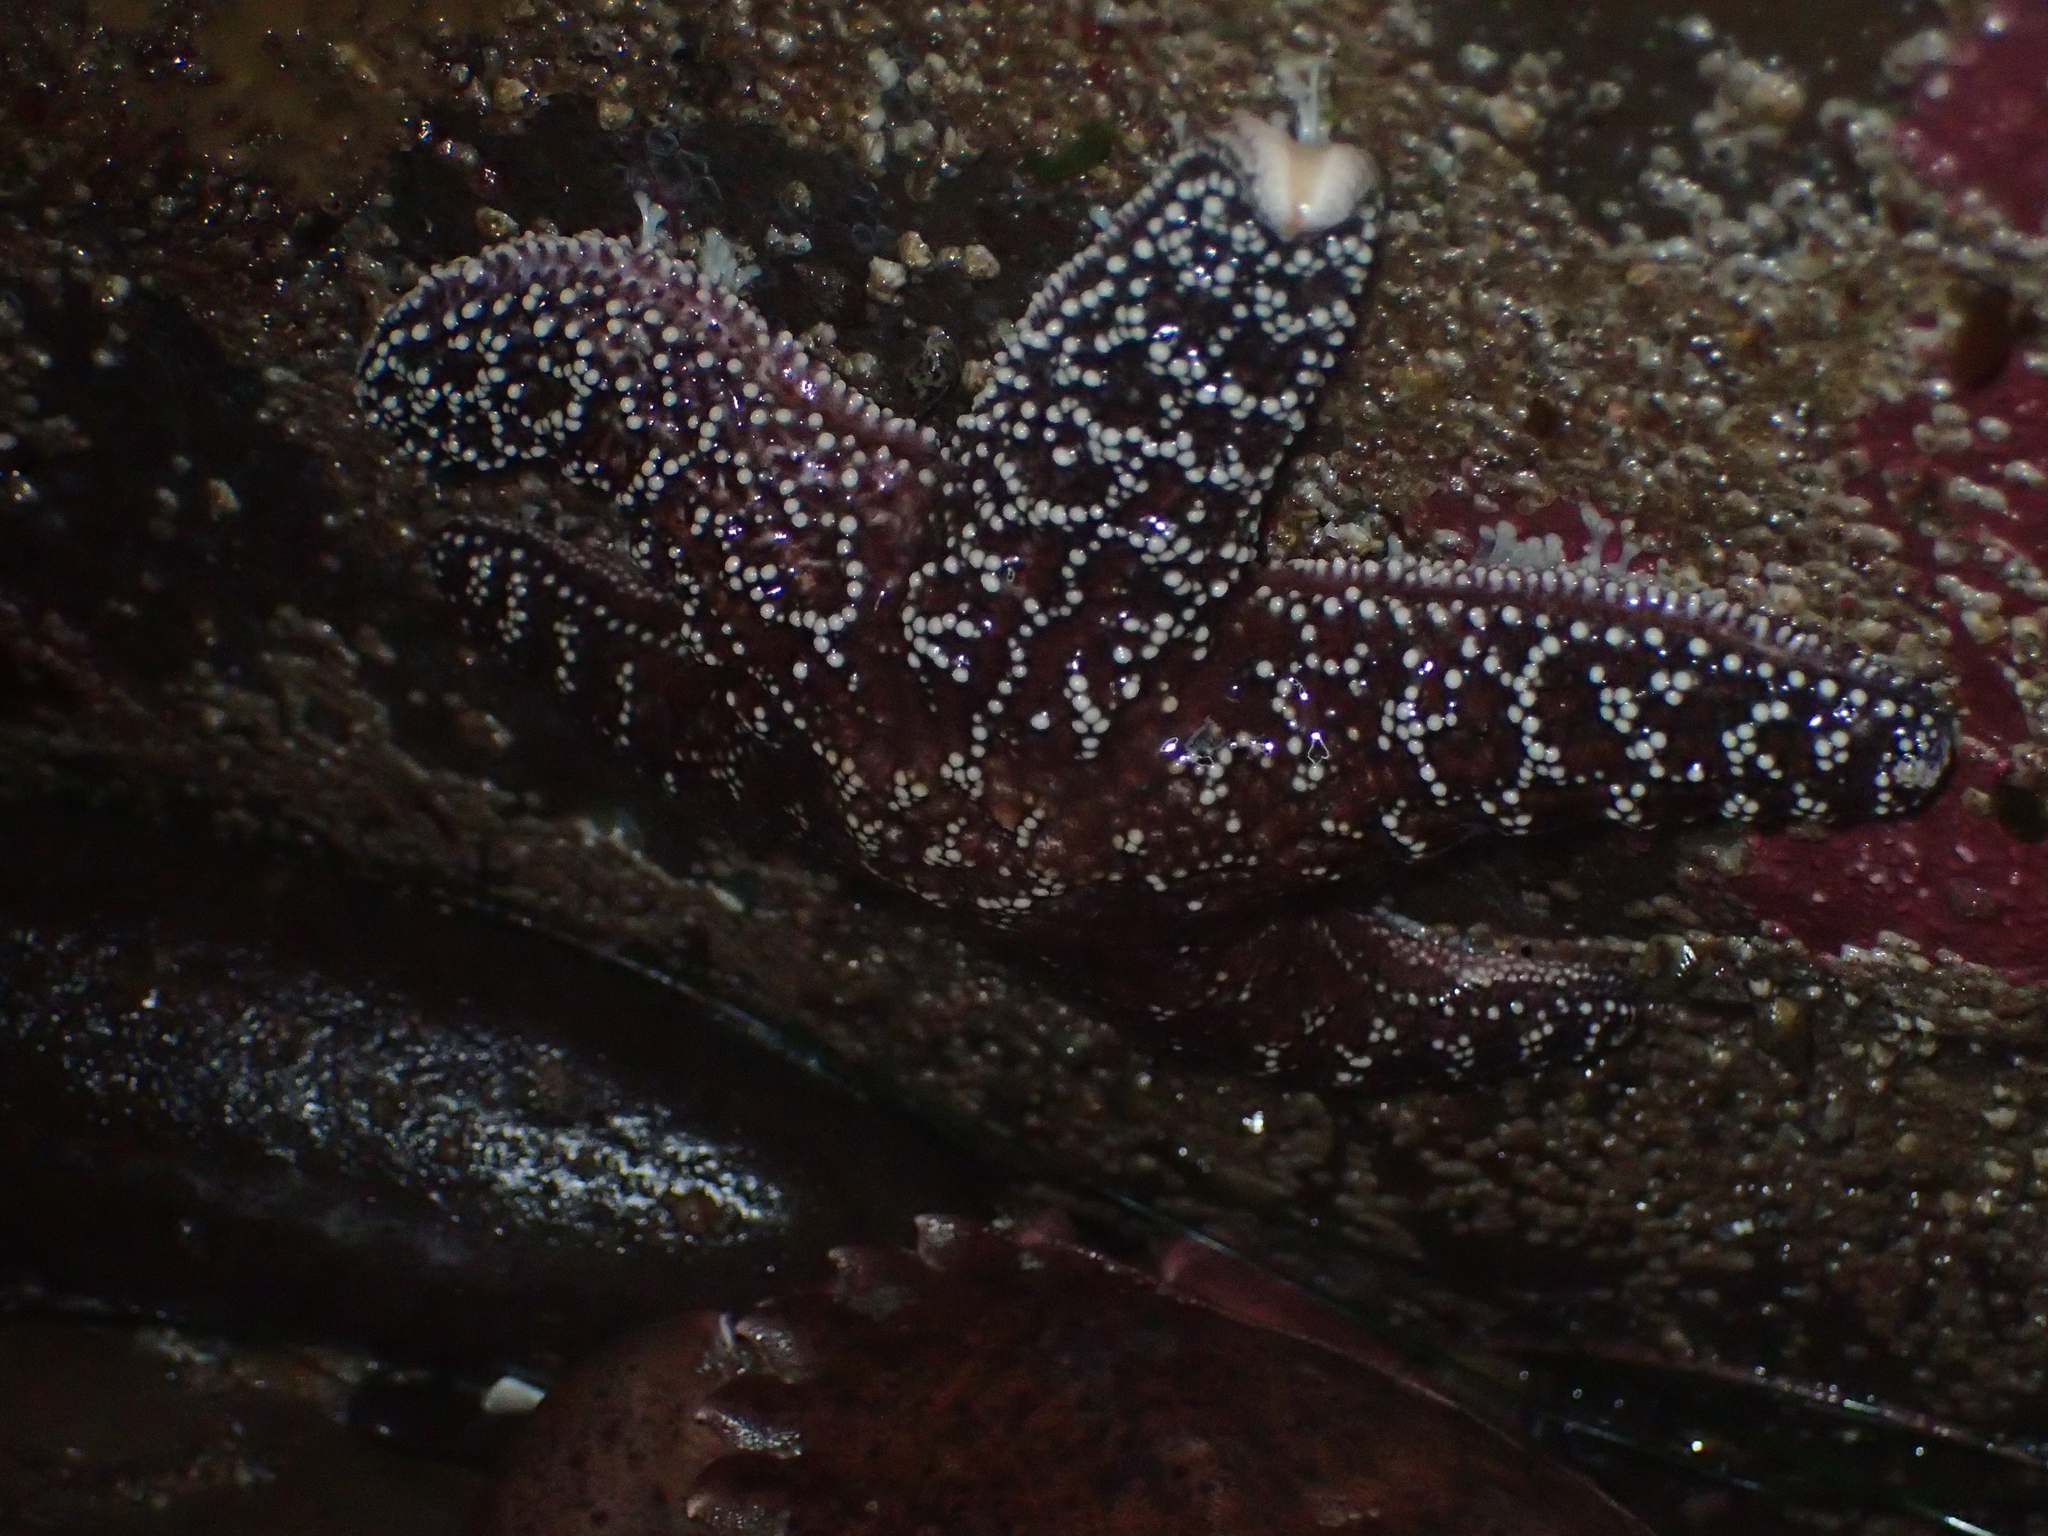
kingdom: Animalia
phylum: Echinodermata
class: Asteroidea
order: Forcipulatida
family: Asteriidae
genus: Pisaster
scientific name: Pisaster ochraceus
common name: Ochre stars
